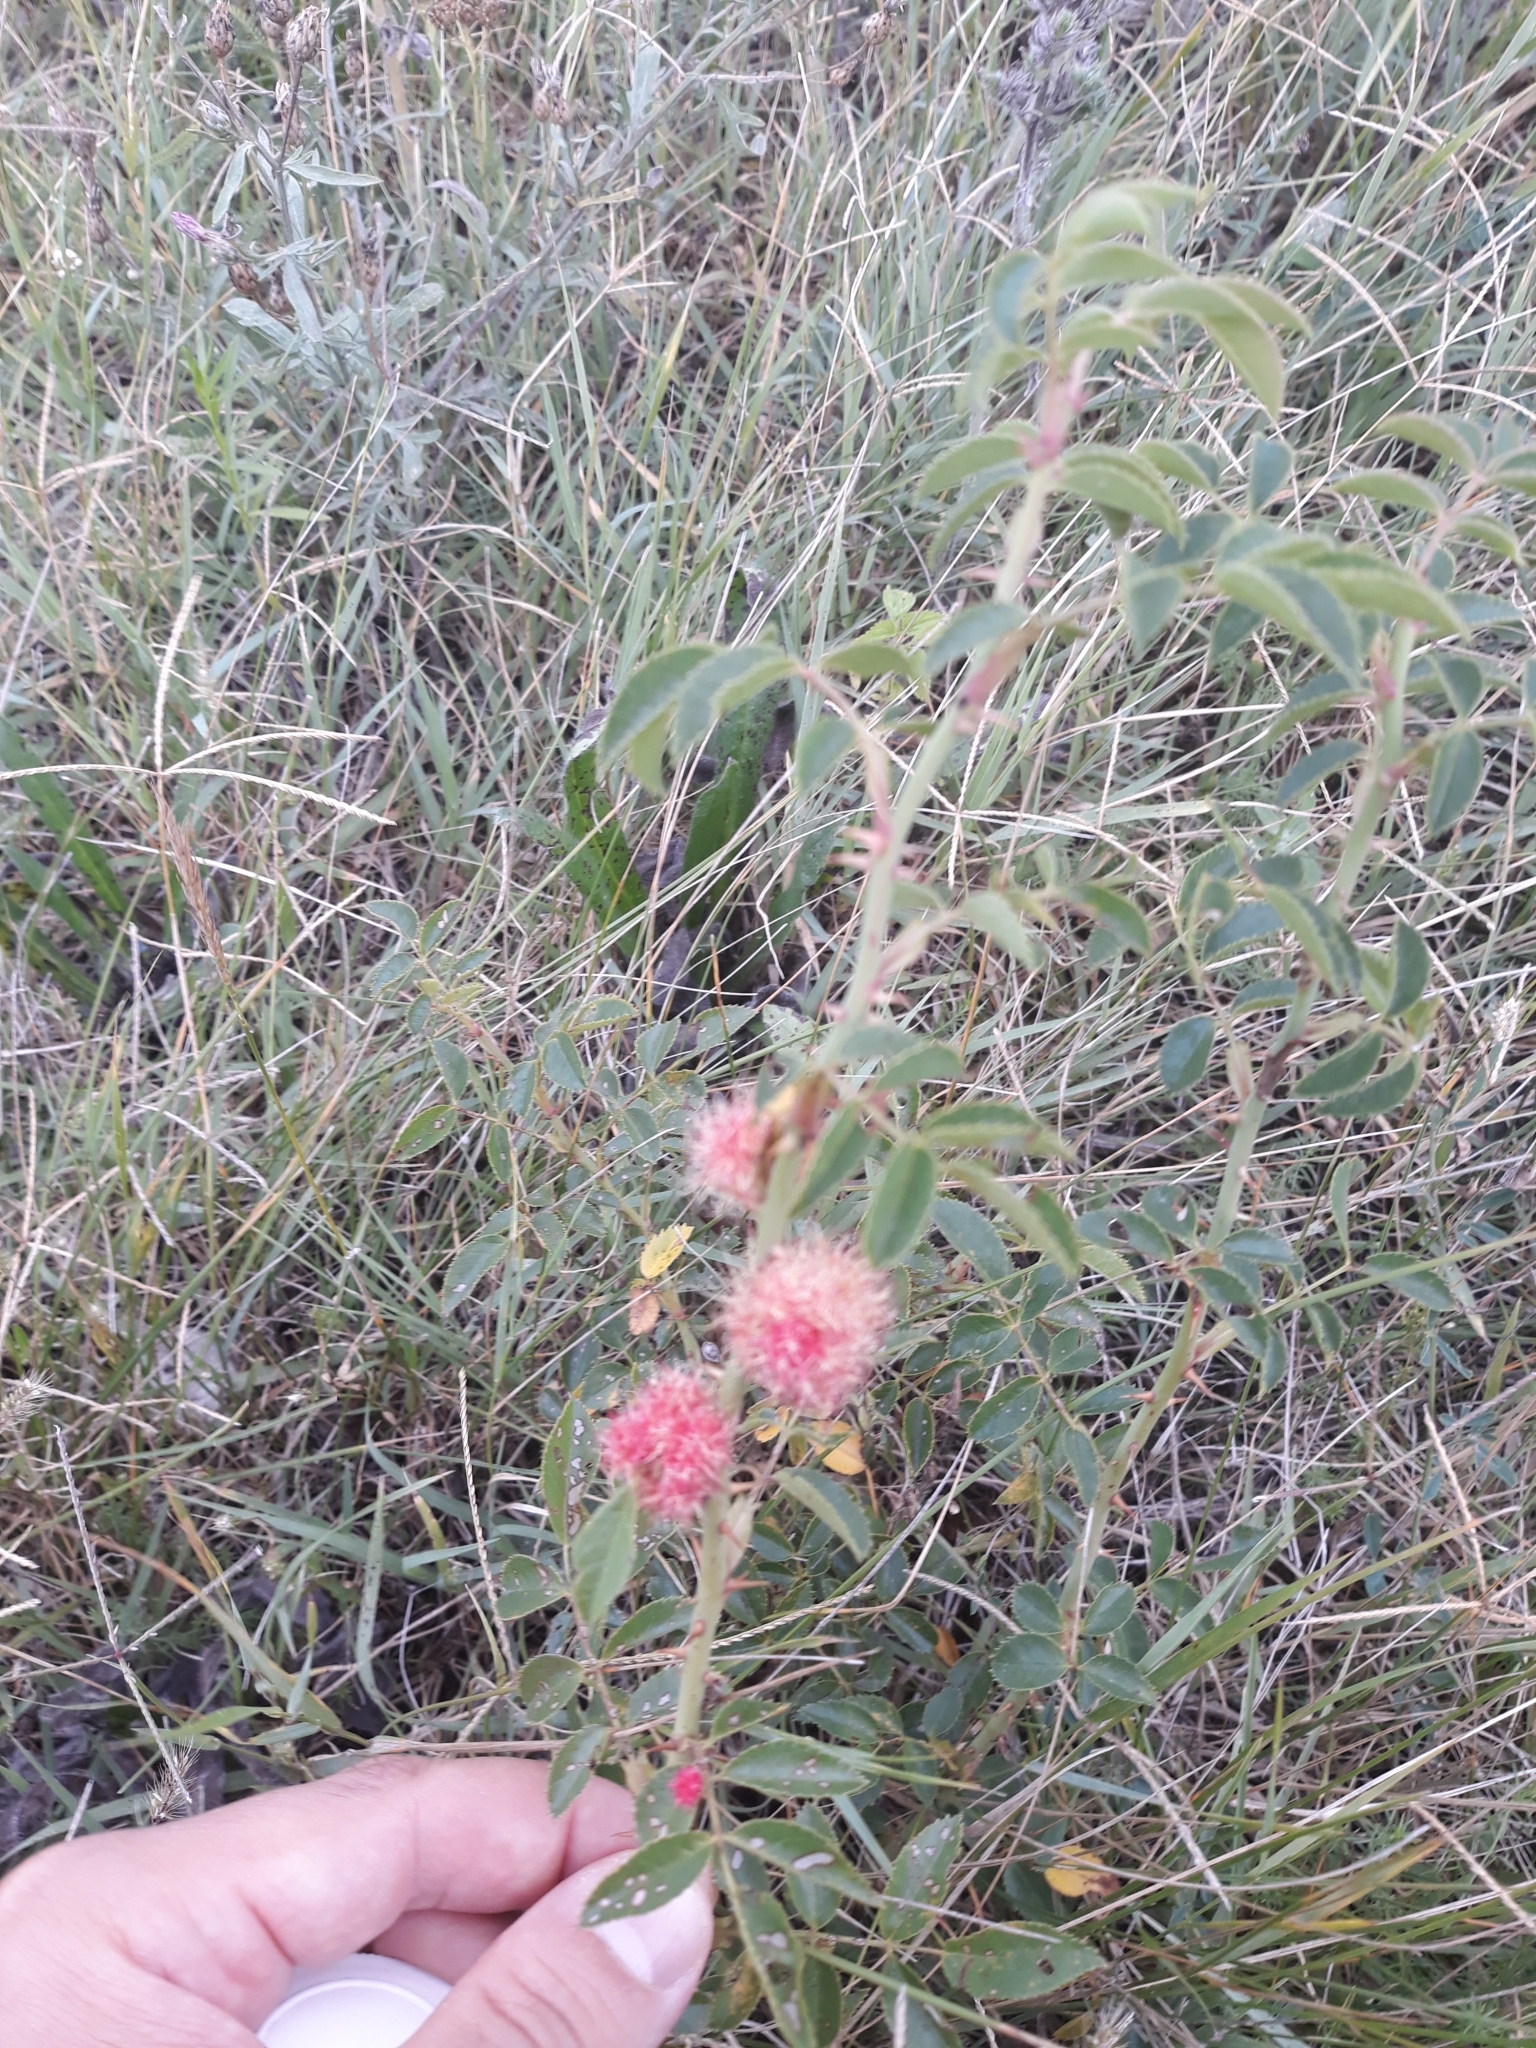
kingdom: Animalia
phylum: Arthropoda
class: Insecta
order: Hymenoptera
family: Cynipidae
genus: Diplolepis
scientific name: Diplolepis rosae
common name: Bedeguar gall
